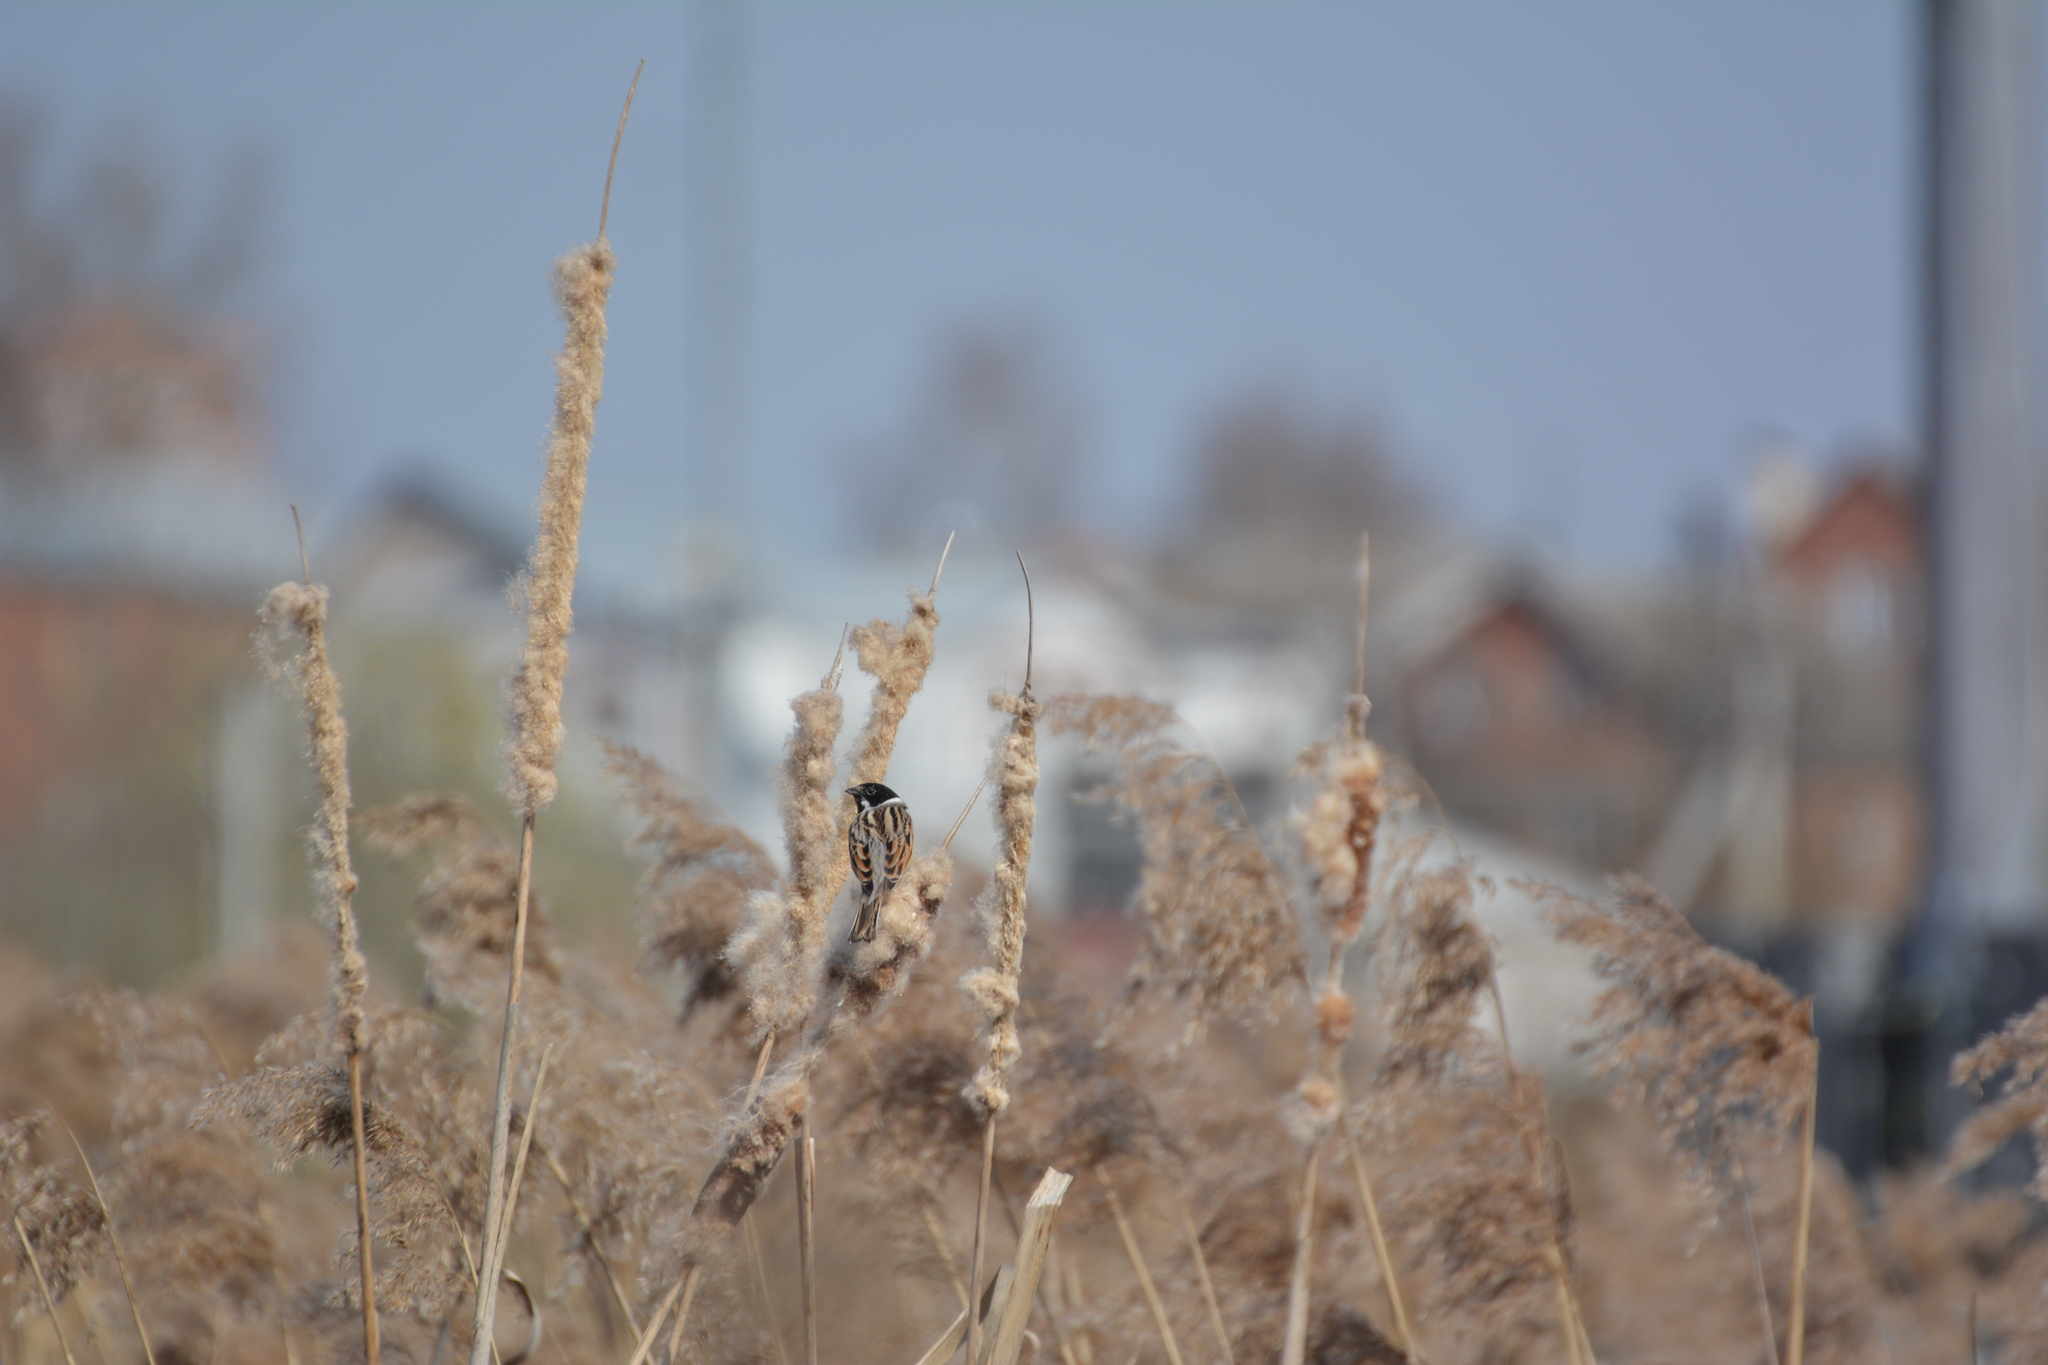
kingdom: Animalia
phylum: Chordata
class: Aves
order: Passeriformes
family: Emberizidae
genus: Emberiza
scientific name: Emberiza schoeniclus
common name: Reed bunting
